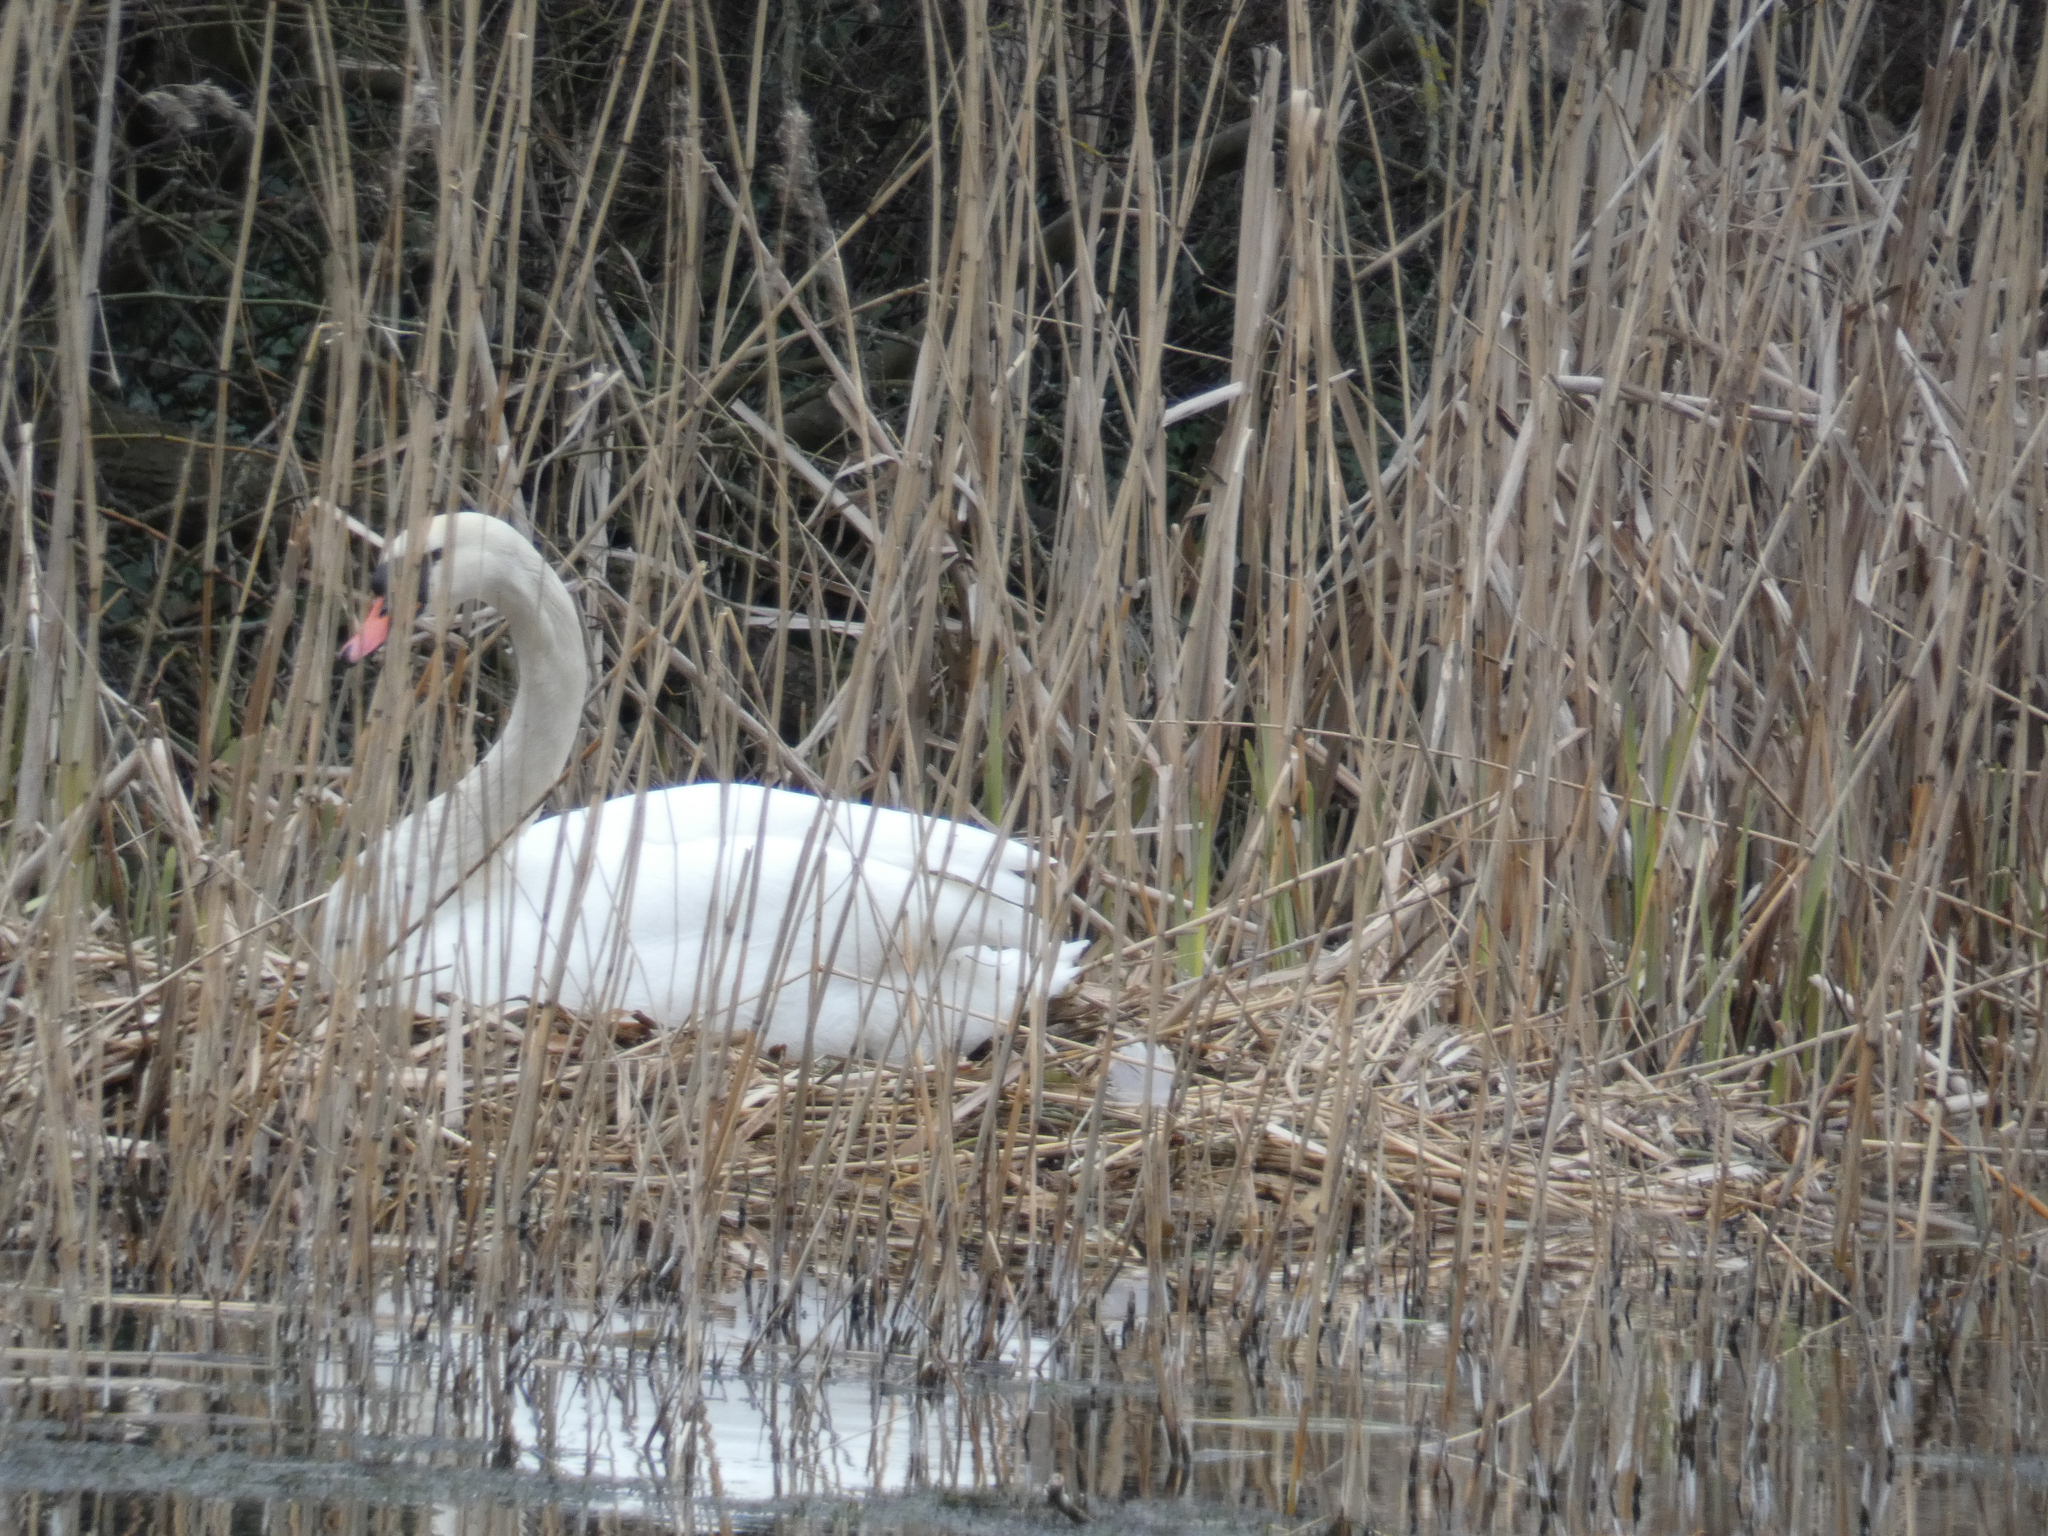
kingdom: Animalia
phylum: Chordata
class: Aves
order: Anseriformes
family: Anatidae
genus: Cygnus
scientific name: Cygnus olor
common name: Mute swan
